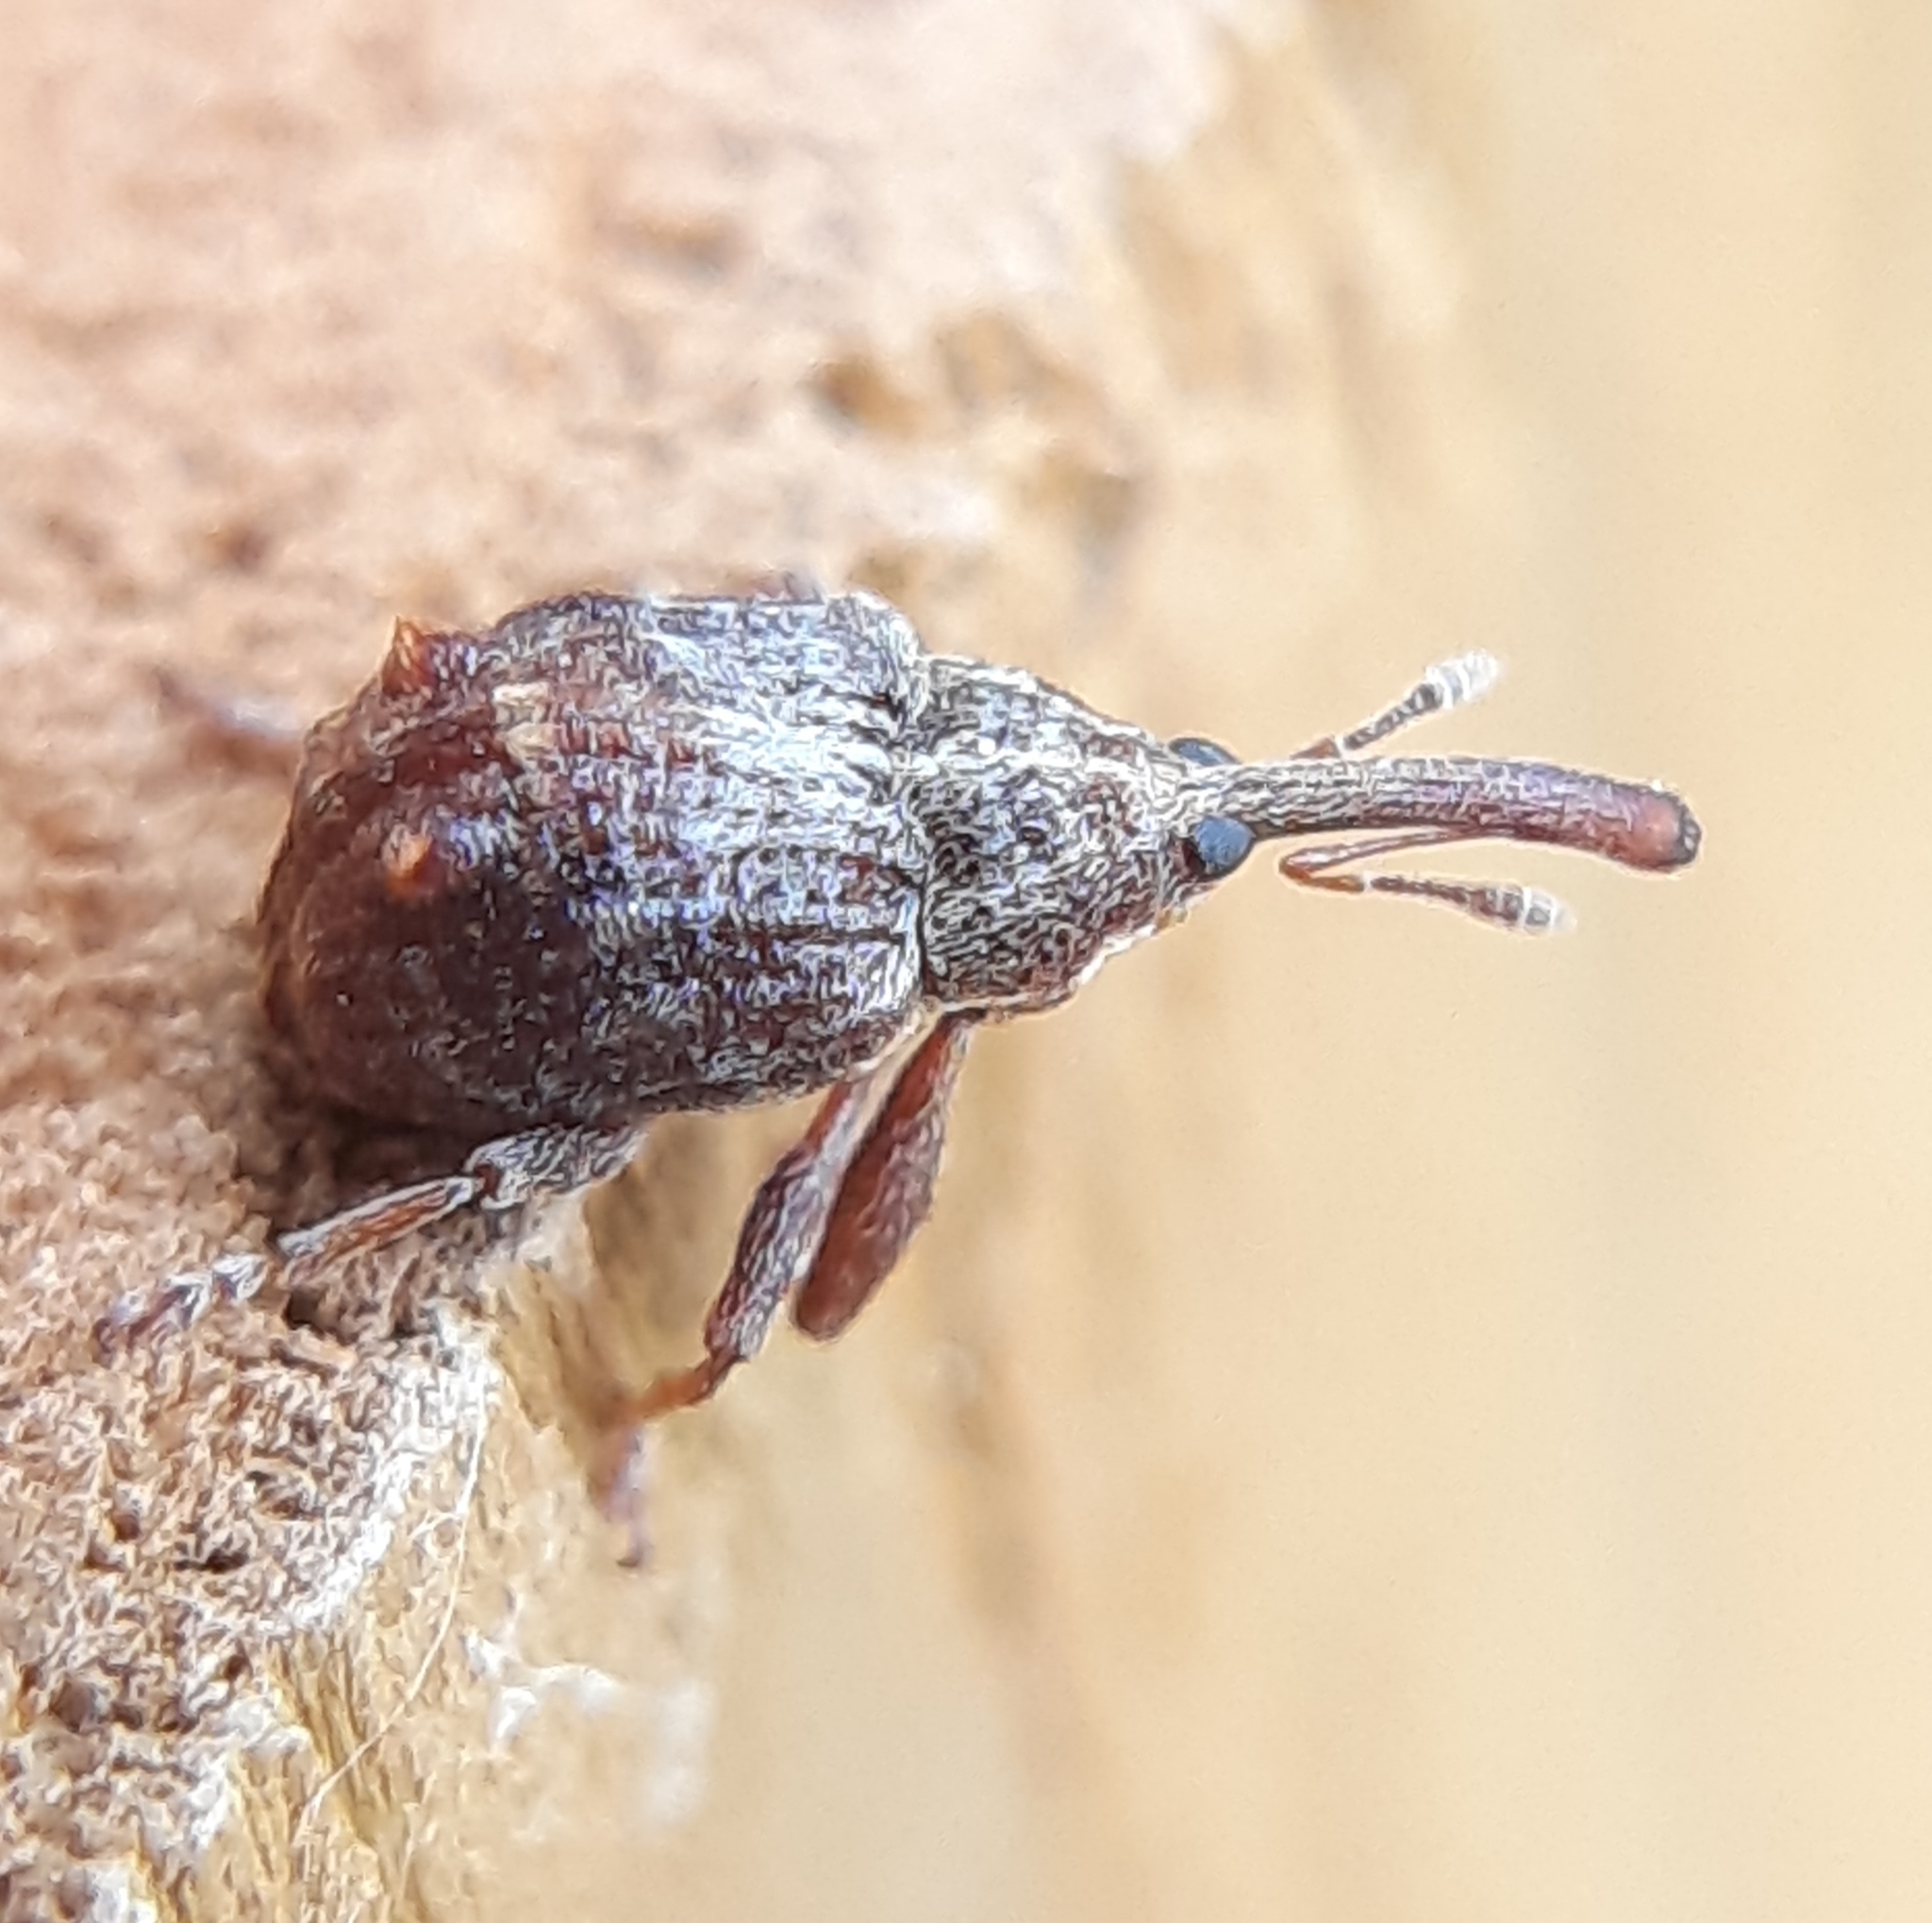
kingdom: Animalia
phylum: Arthropoda
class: Insecta
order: Coleoptera
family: Curculionidae
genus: Anthonomus
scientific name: Anthonomus quadrigibbus
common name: Apple curculio
